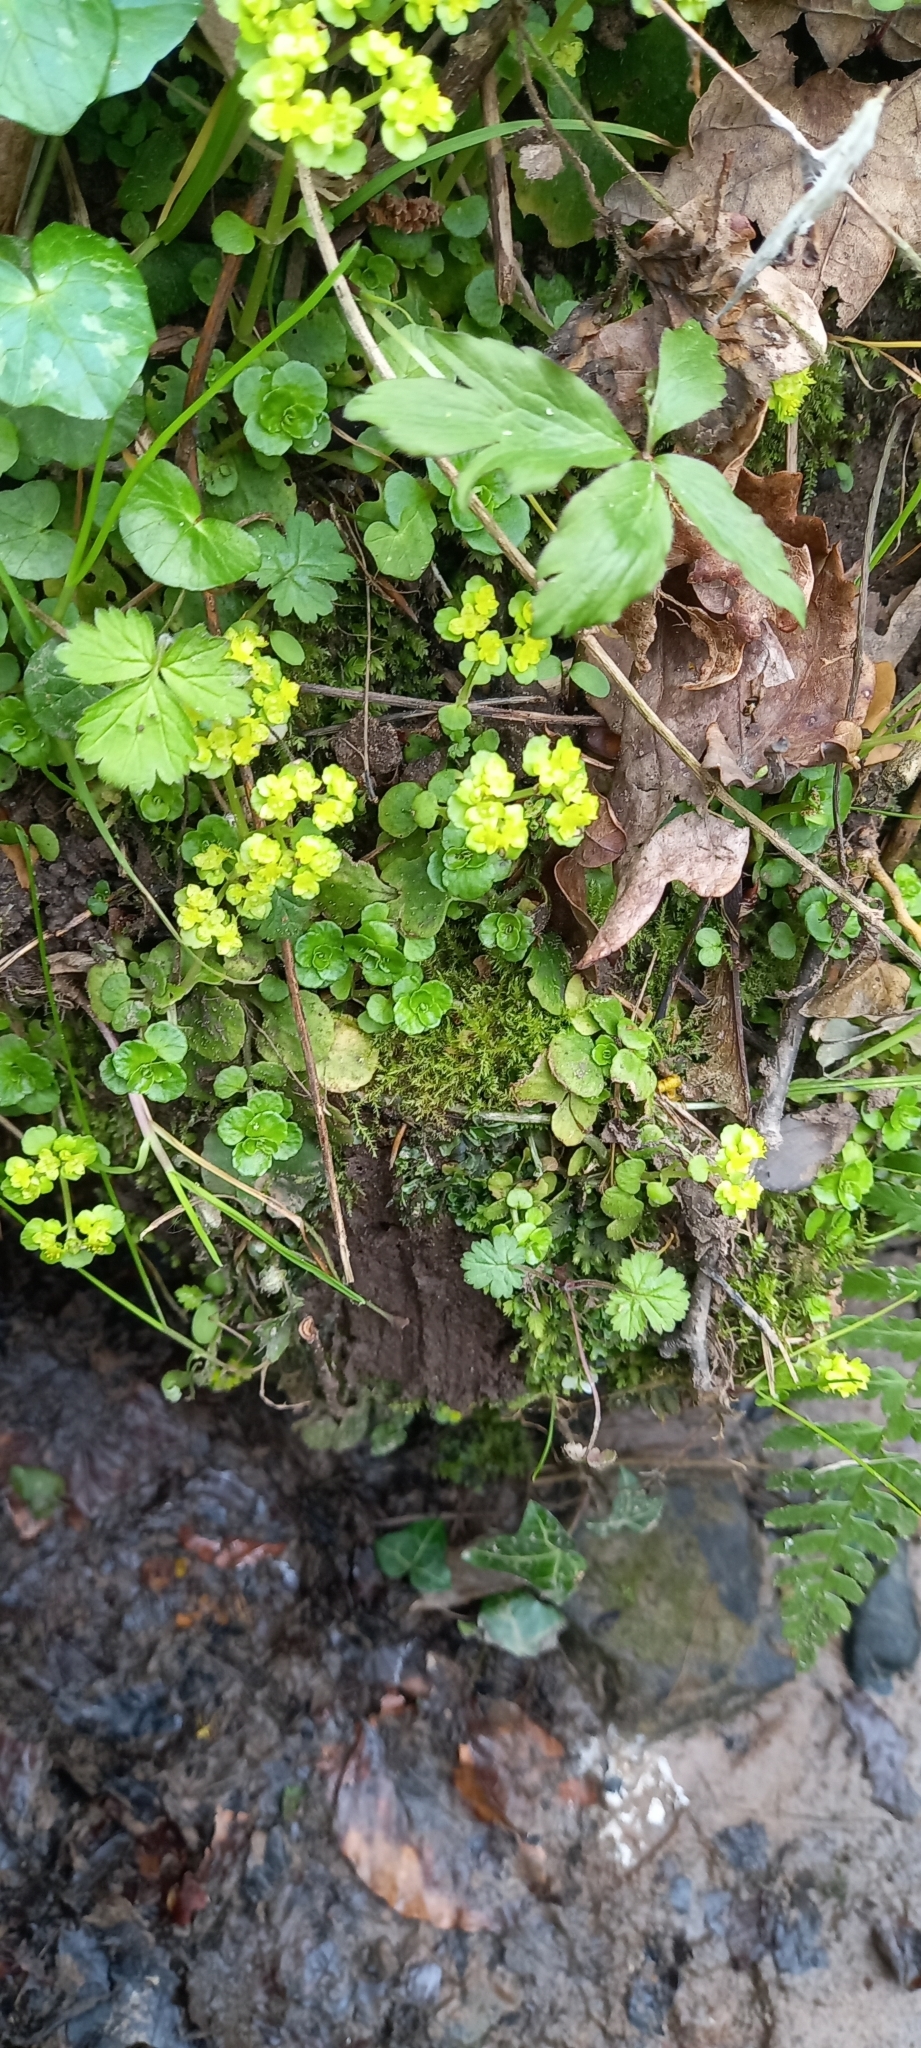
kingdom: Plantae
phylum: Tracheophyta
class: Magnoliopsida
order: Saxifragales
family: Saxifragaceae
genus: Chrysosplenium
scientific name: Chrysosplenium oppositifolium
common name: Opposite-leaved golden-saxifrage
